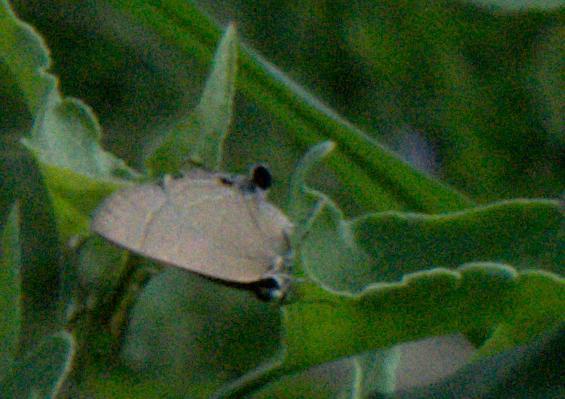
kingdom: Animalia
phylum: Arthropoda
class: Insecta
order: Lepidoptera
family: Lycaenidae
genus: Rapala
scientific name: Rapala manea
